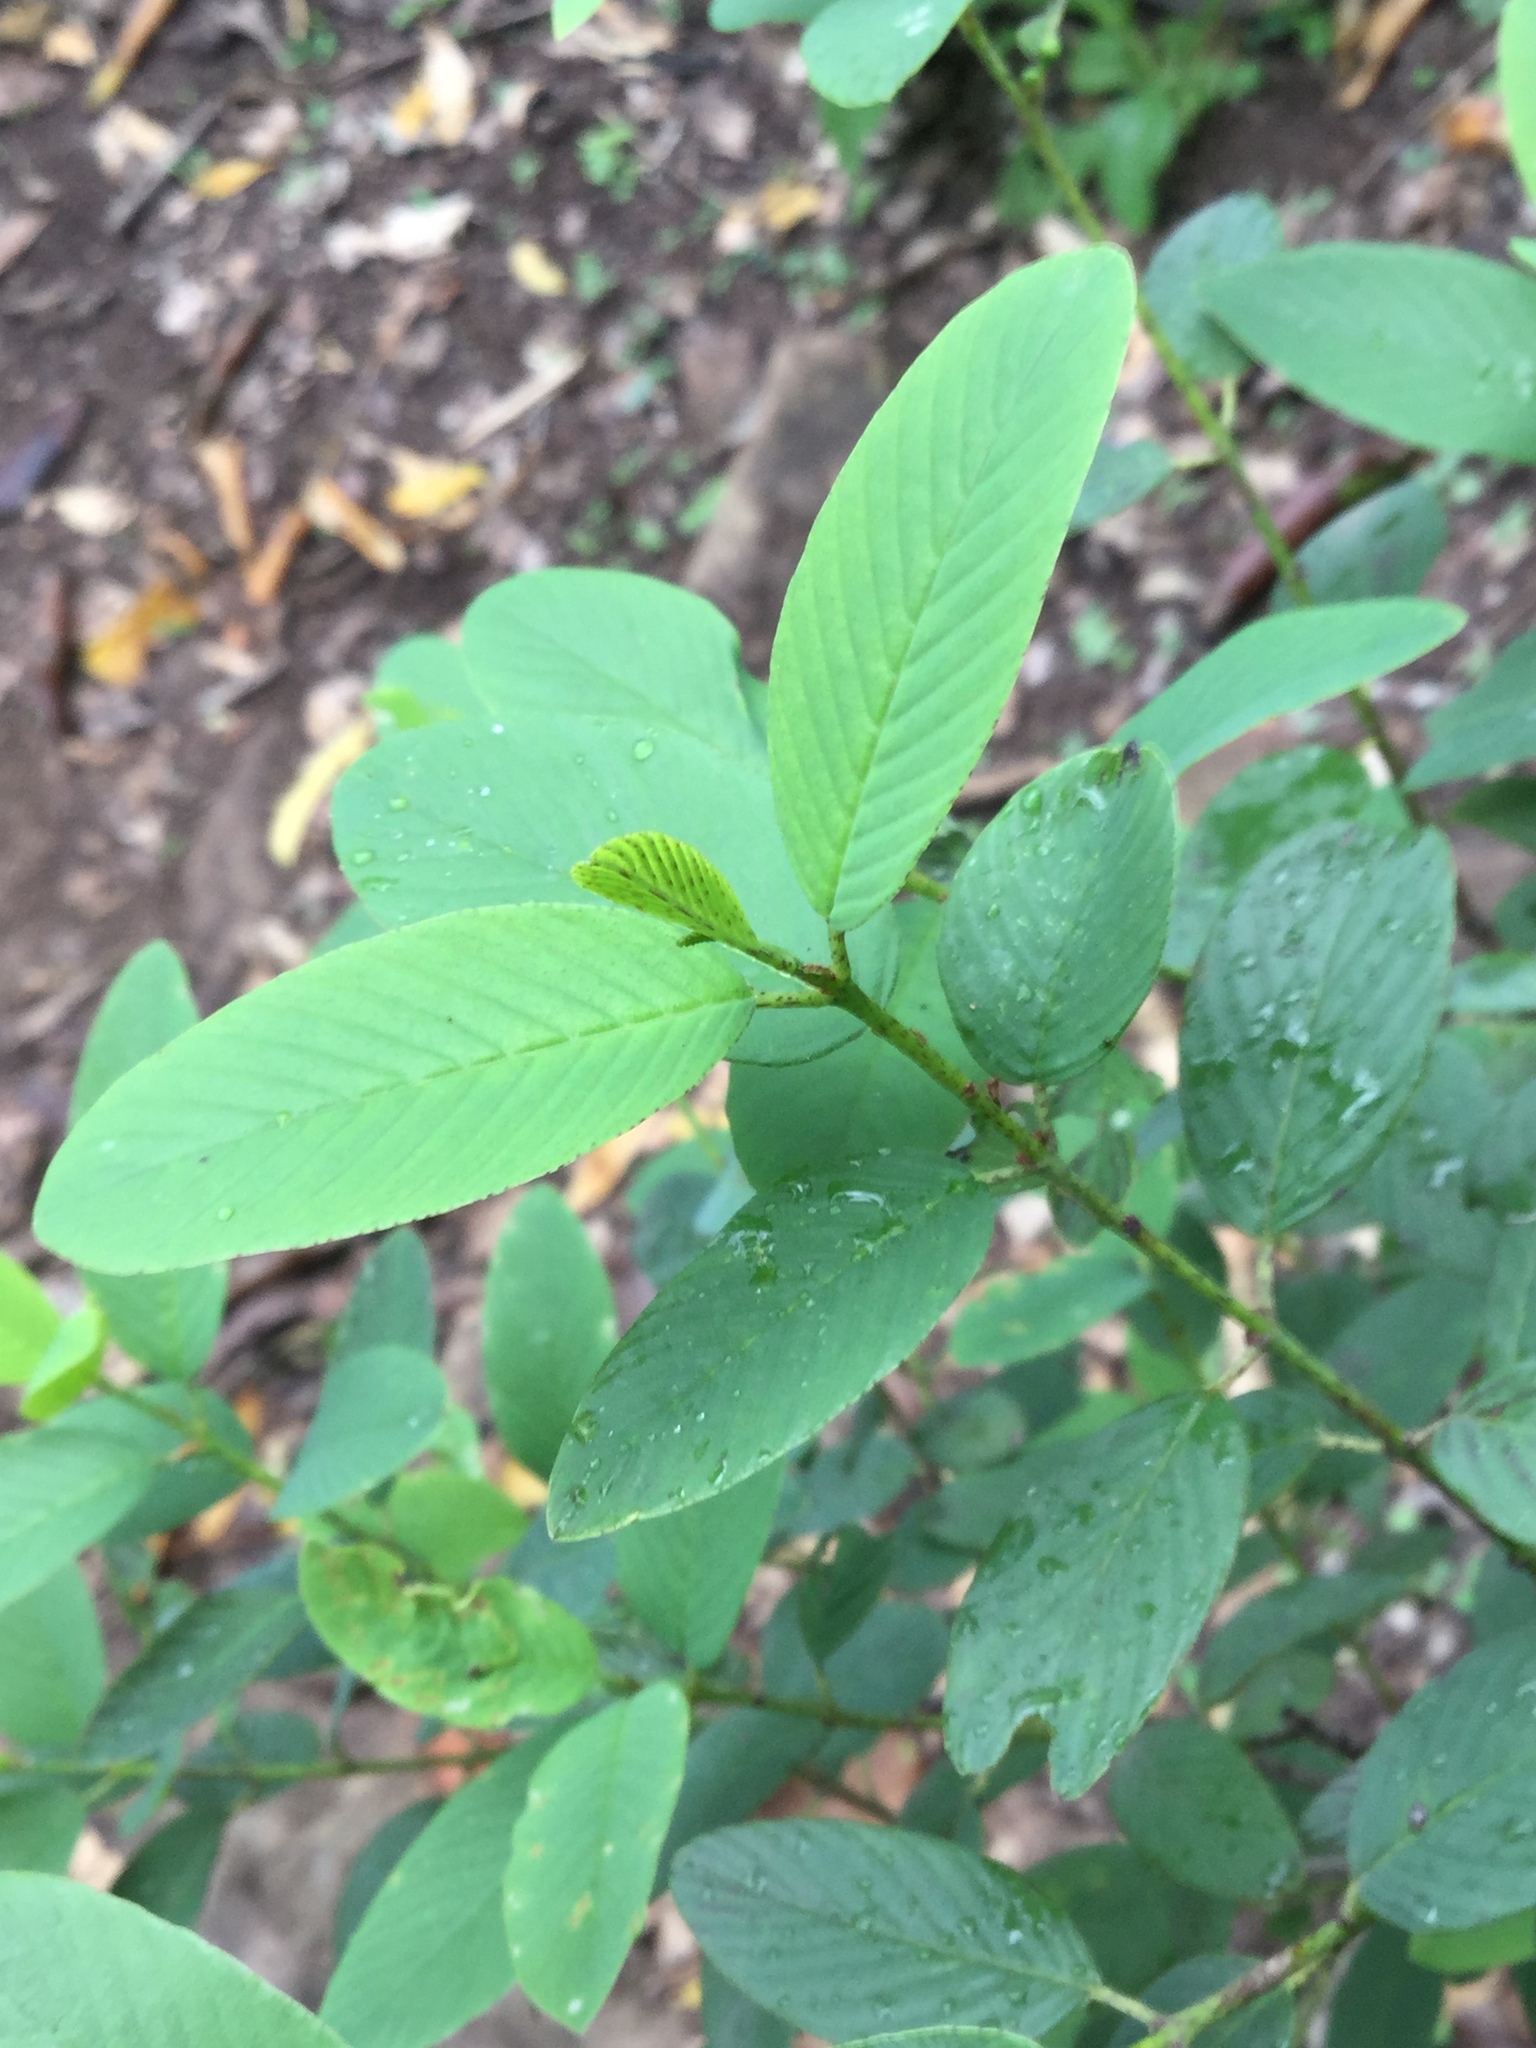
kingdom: Plantae
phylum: Tracheophyta
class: Magnoliopsida
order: Rosales
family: Rhamnaceae
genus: Karwinskia
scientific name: Karwinskia humboldtiana
